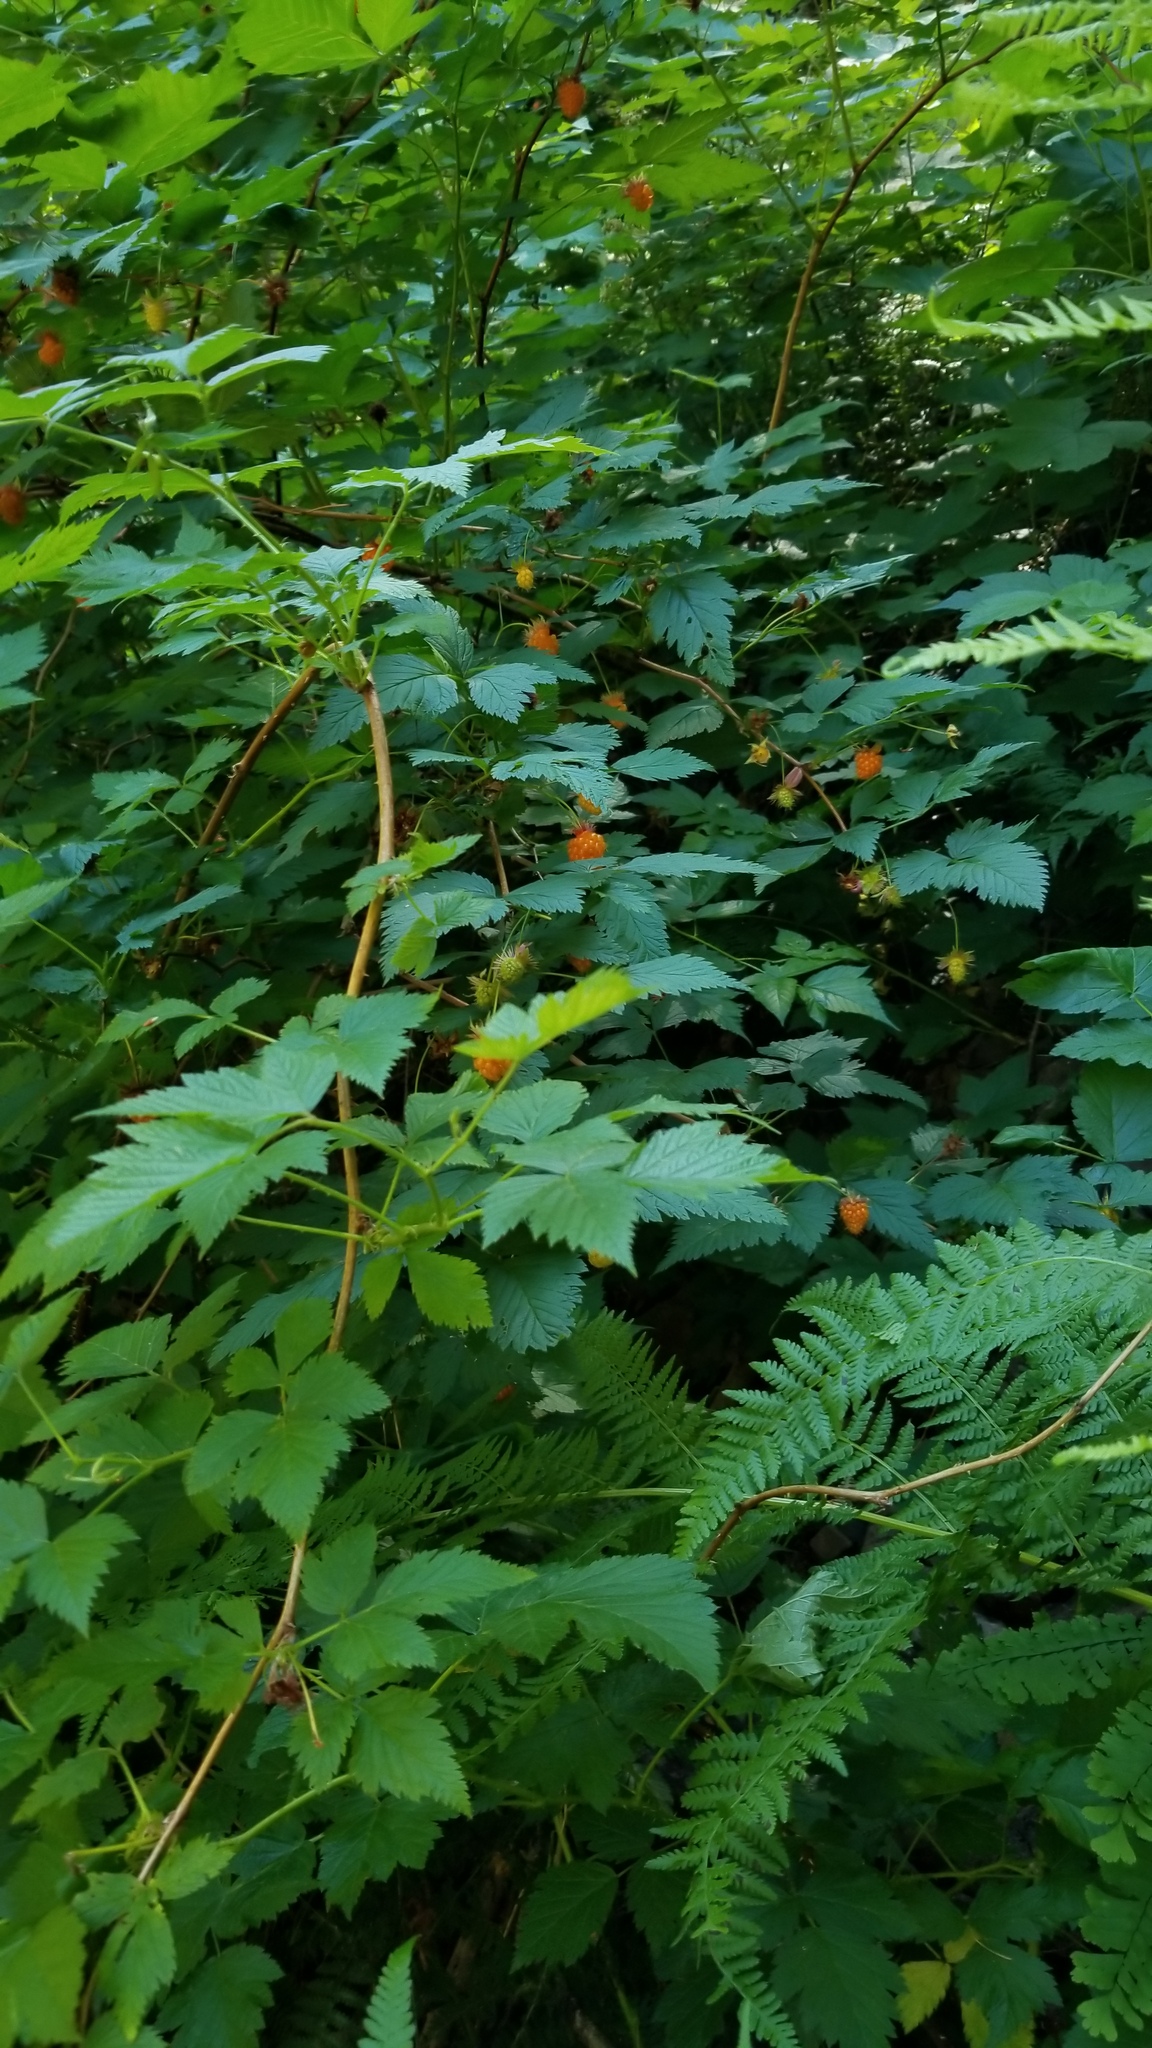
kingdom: Plantae
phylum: Tracheophyta
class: Magnoliopsida
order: Rosales
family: Rosaceae
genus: Rubus
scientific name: Rubus spectabilis
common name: Salmonberry
